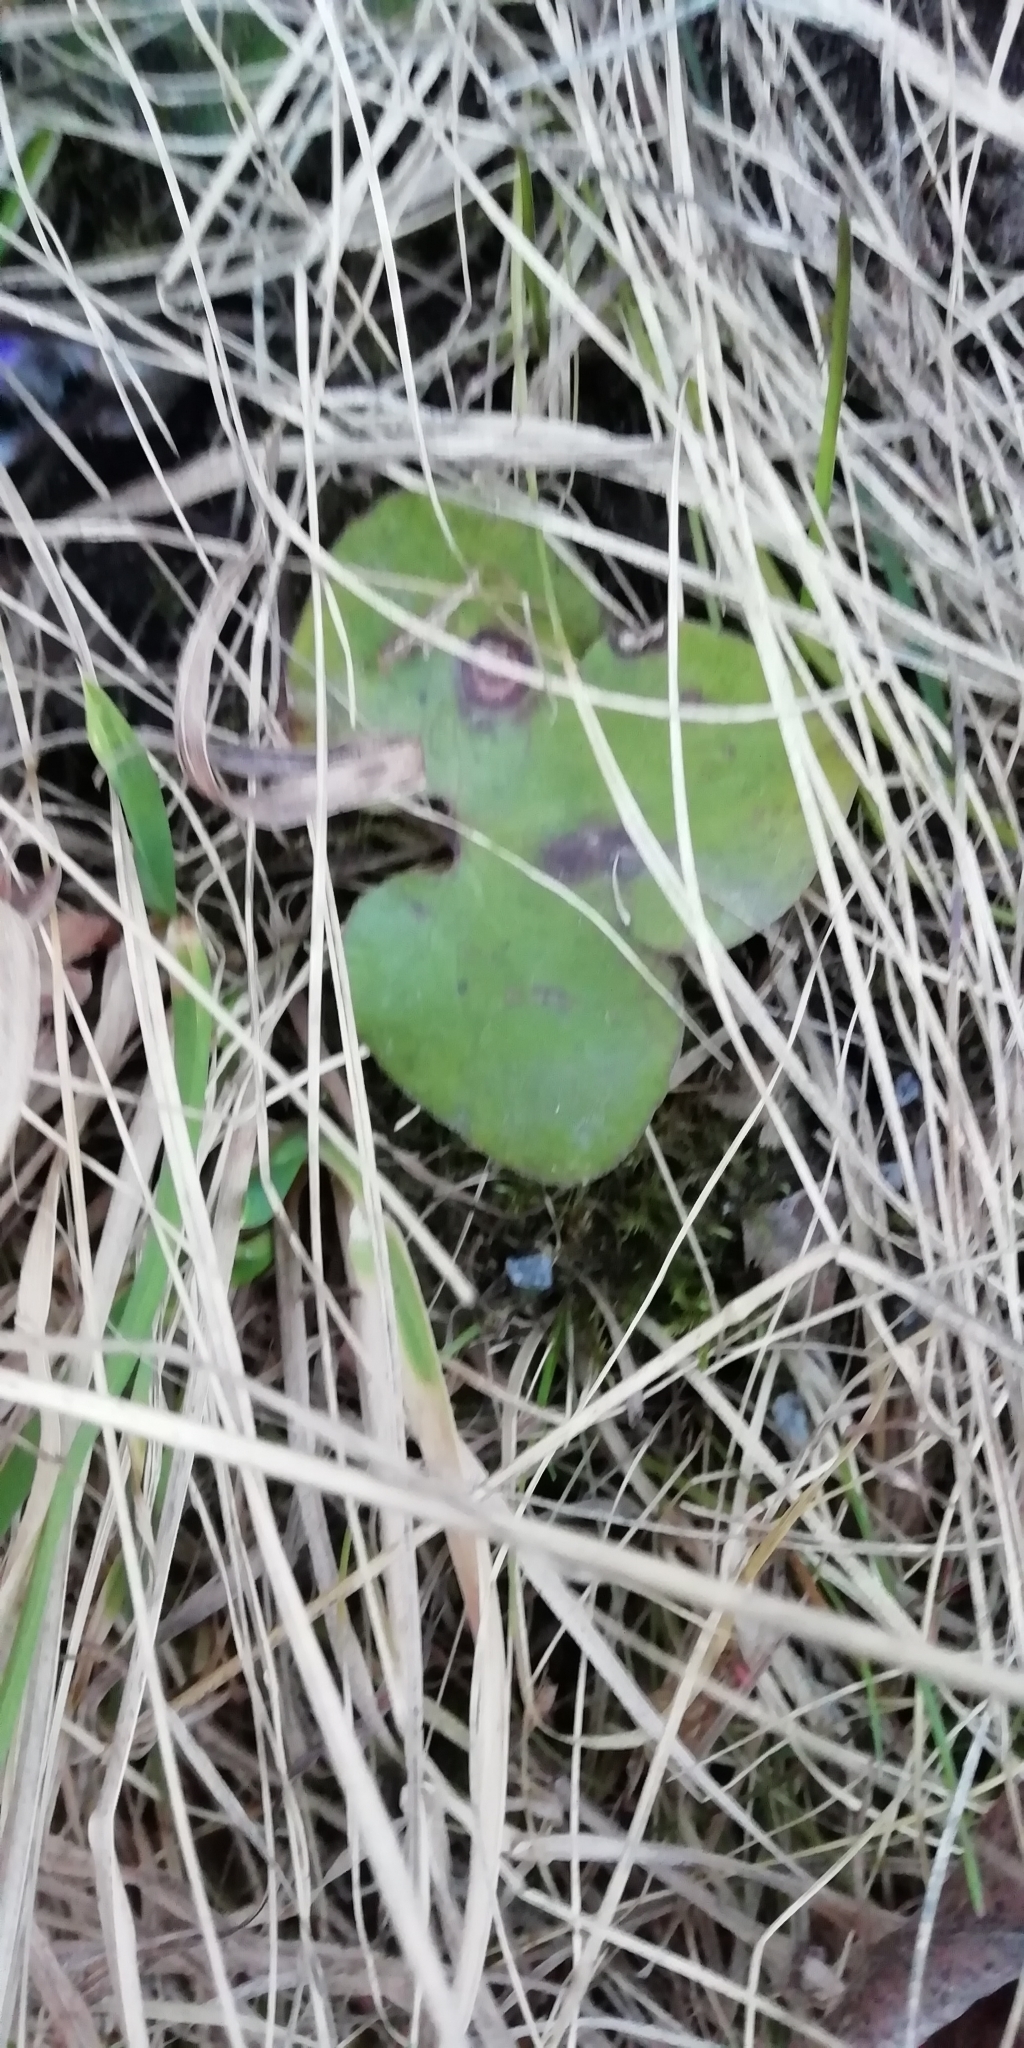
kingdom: Plantae
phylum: Tracheophyta
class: Magnoliopsida
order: Ranunculales
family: Ranunculaceae
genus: Hepatica
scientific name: Hepatica nobilis
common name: Liverleaf
